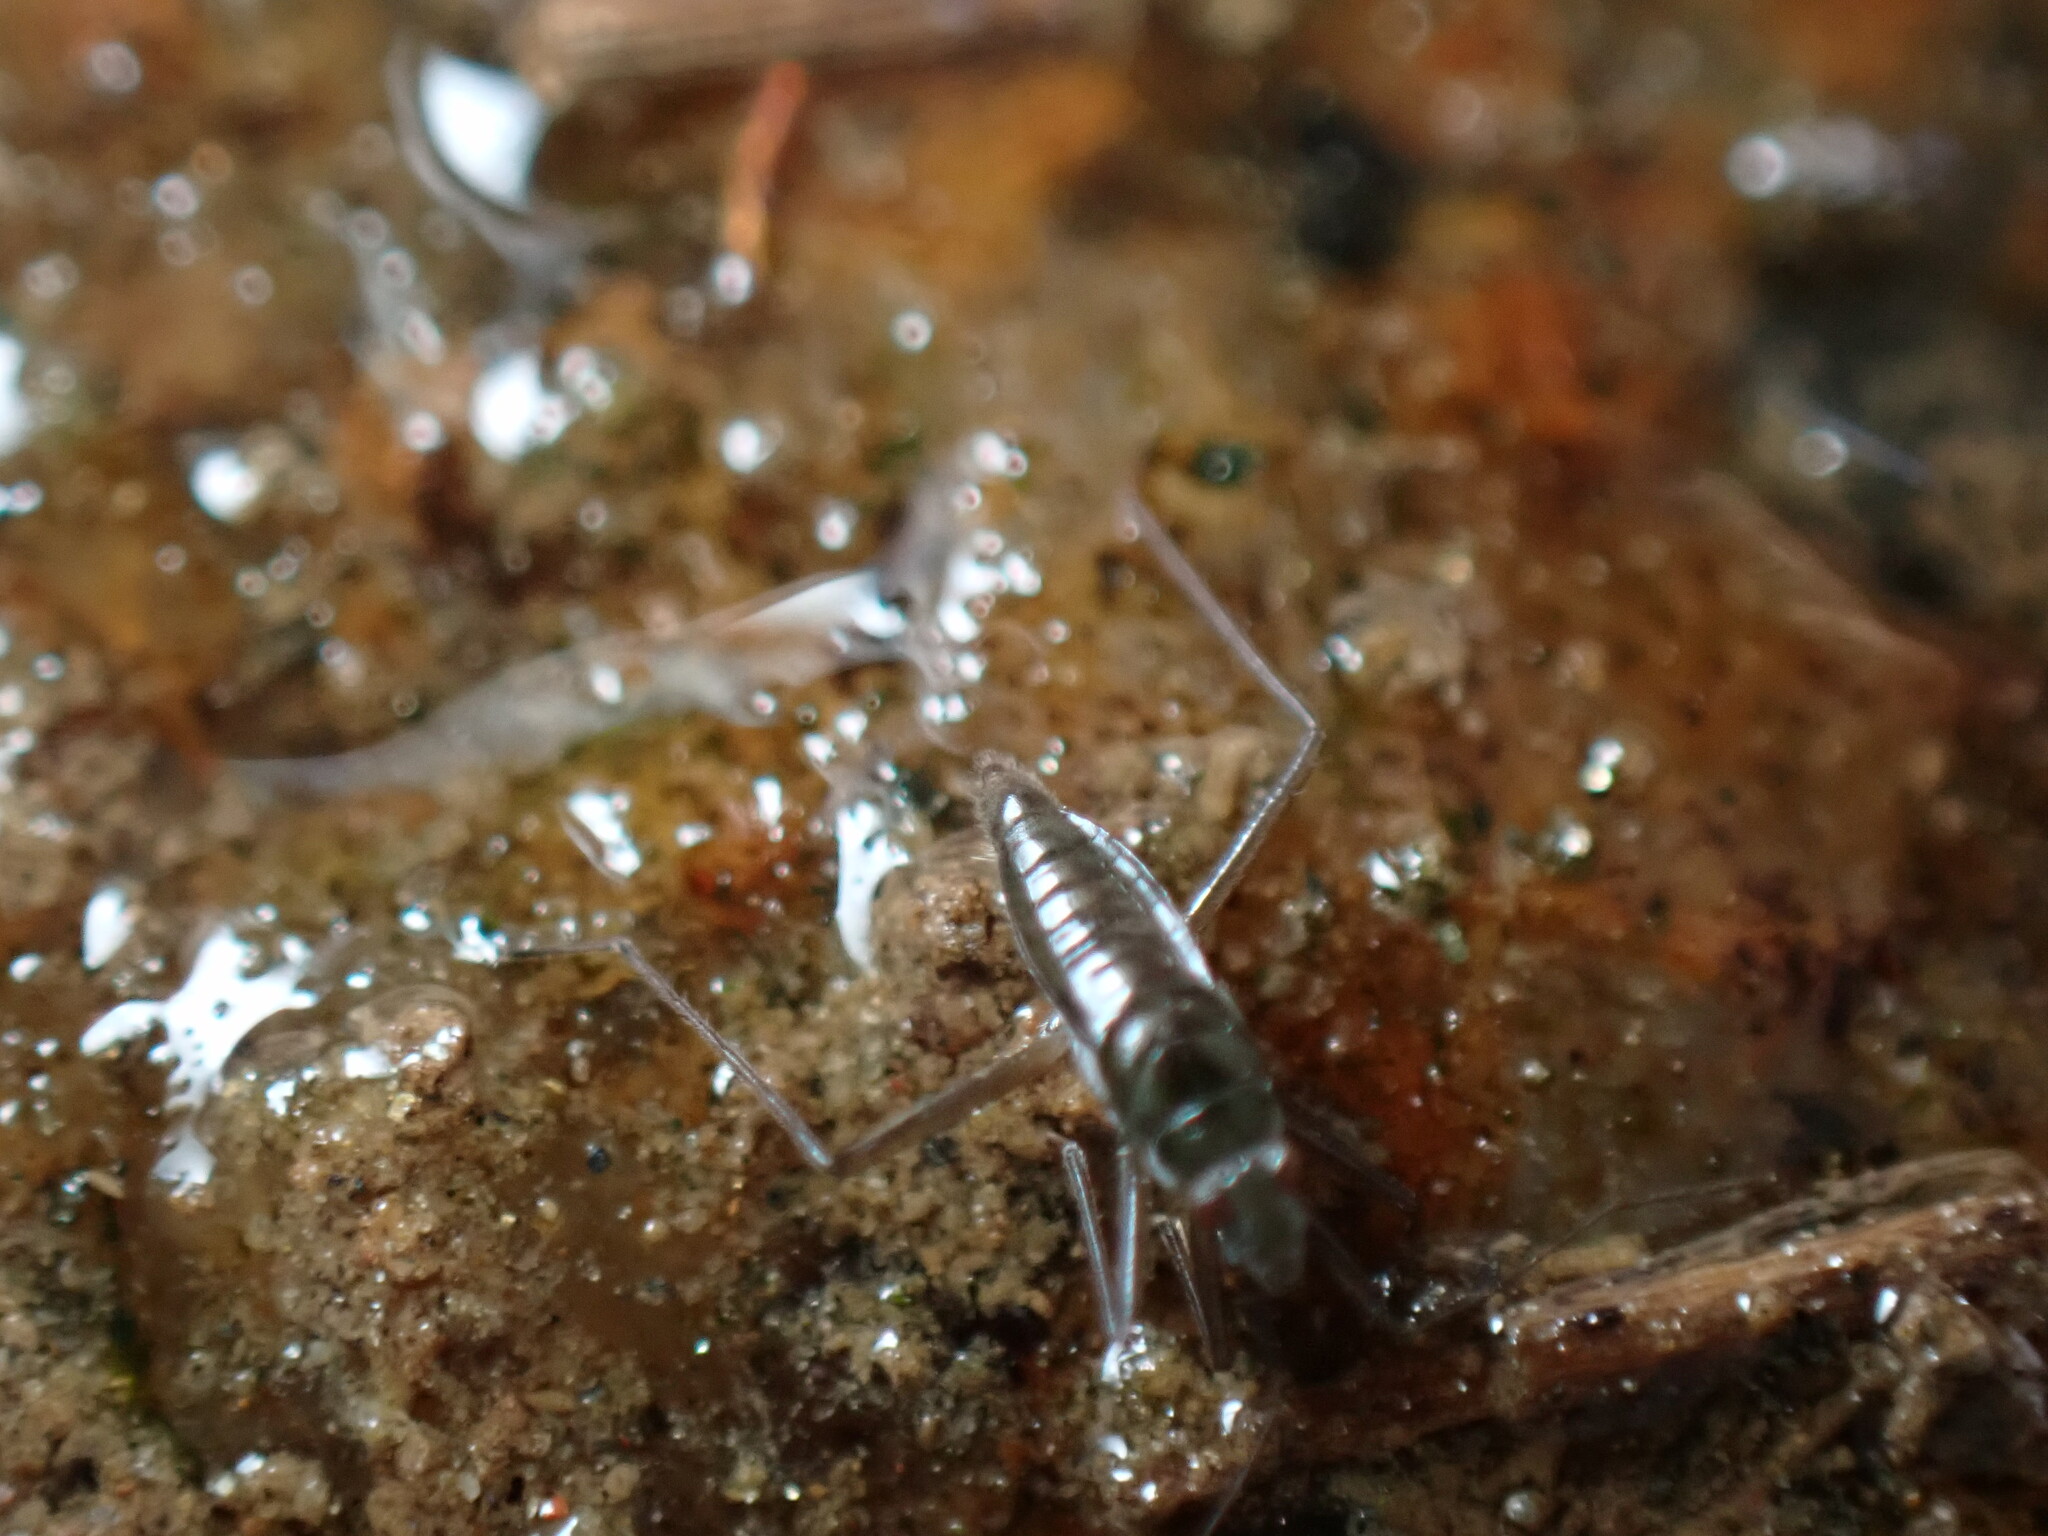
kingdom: Animalia
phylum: Arthropoda
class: Insecta
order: Hemiptera
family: Mesoveliidae
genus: Mesovelia
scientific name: Mesovelia mulsanti
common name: Water treaders
